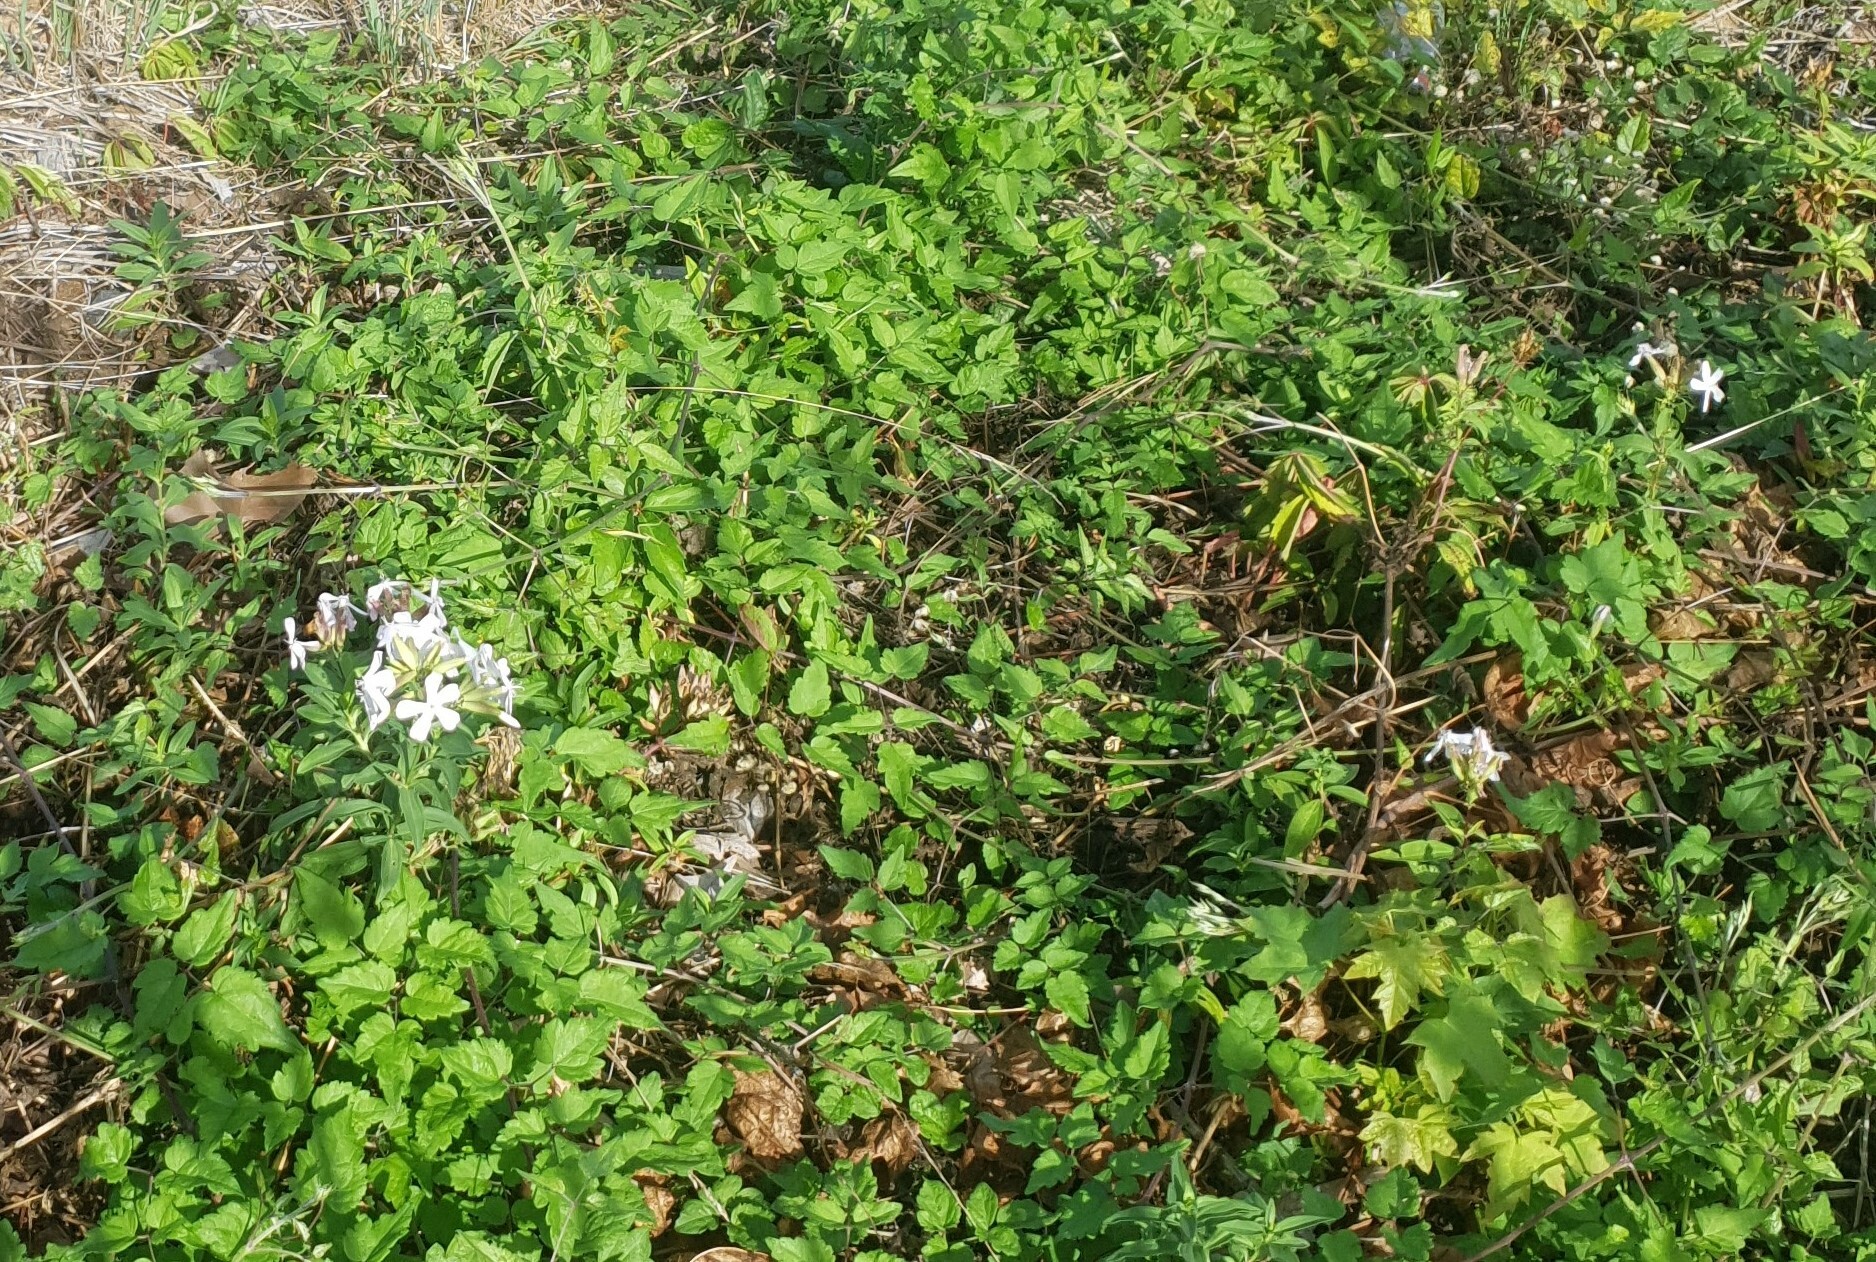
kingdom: Plantae
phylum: Tracheophyta
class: Magnoliopsida
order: Caryophyllales
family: Caryophyllaceae
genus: Saponaria
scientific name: Saponaria officinalis
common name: Soapwort
